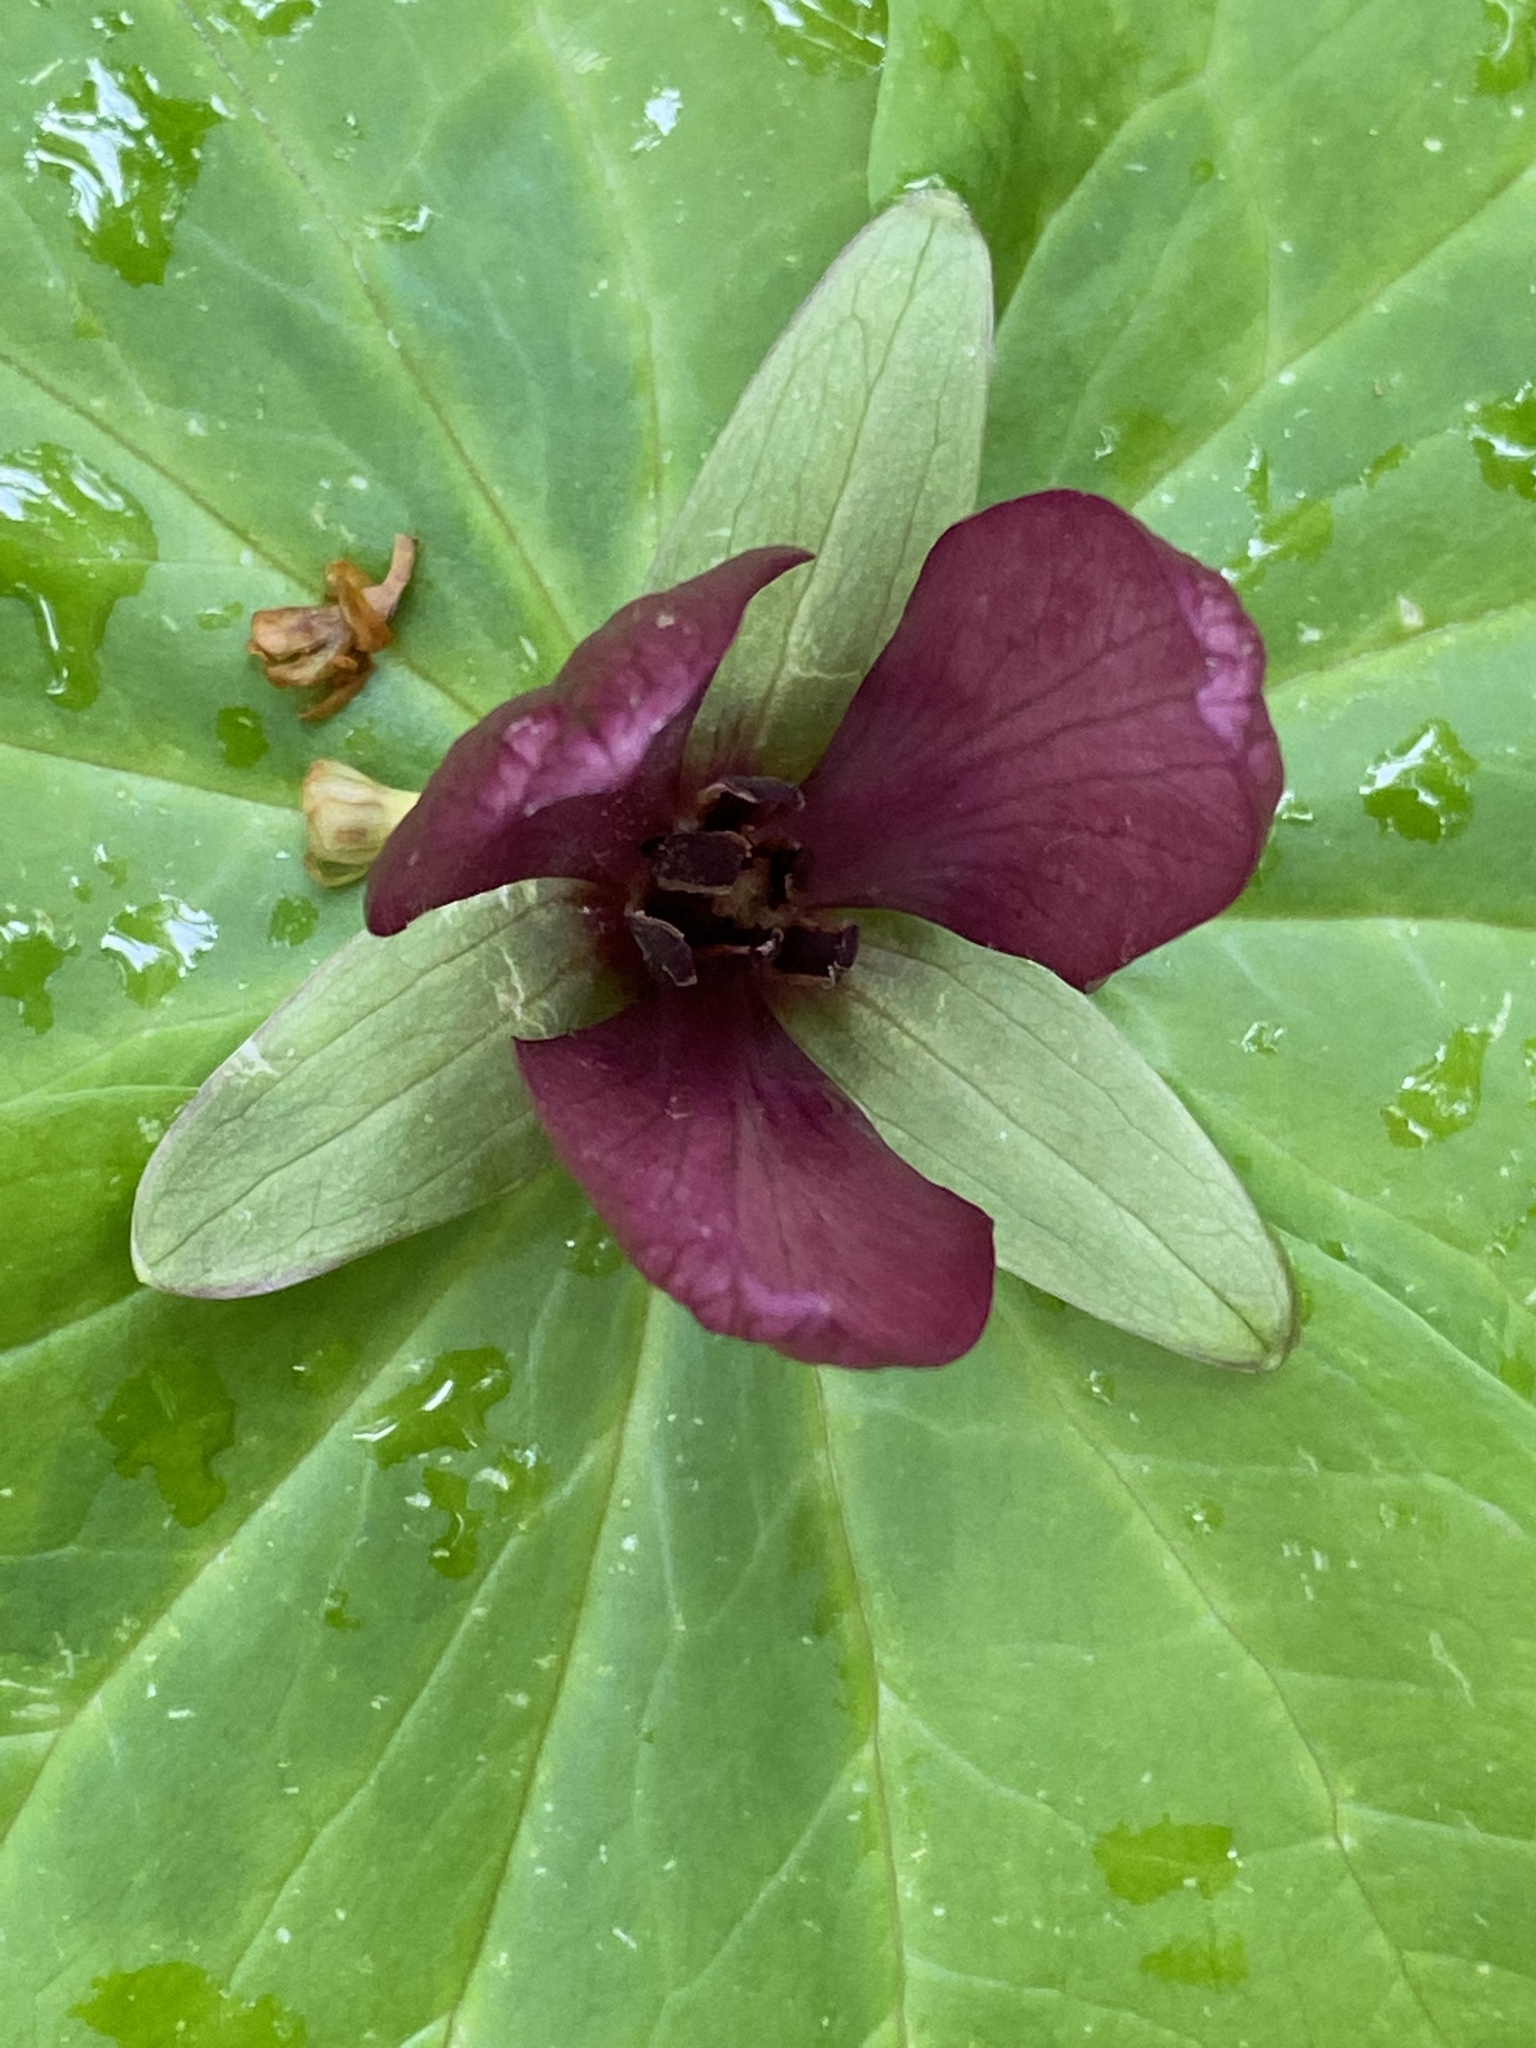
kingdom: Plantae
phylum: Tracheophyta
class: Liliopsida
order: Liliales
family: Melanthiaceae
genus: Trillium
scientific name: Trillium chloropetalum
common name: Giant trillium
